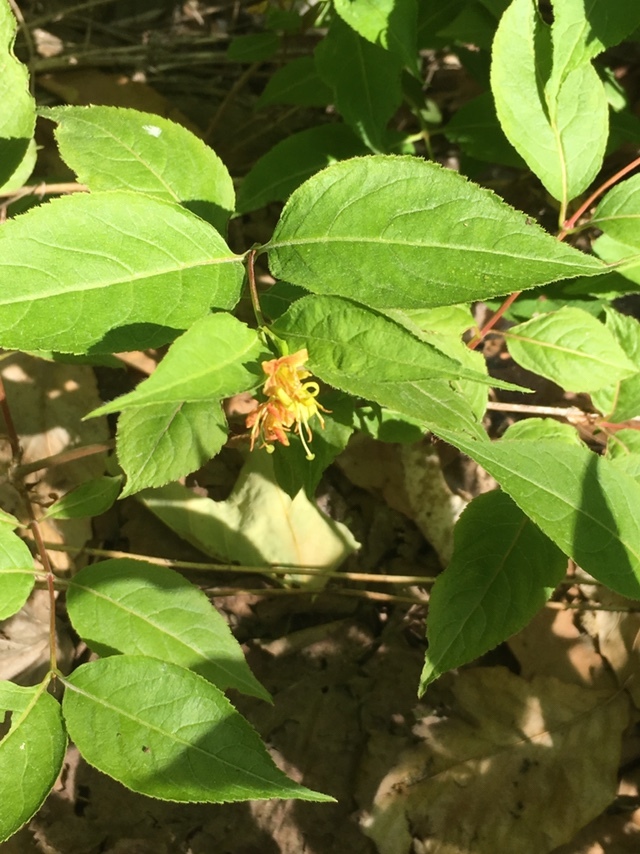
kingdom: Plantae
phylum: Tracheophyta
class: Magnoliopsida
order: Dipsacales
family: Caprifoliaceae
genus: Diervilla
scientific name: Diervilla lonicera
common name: Bush-honeysuckle
